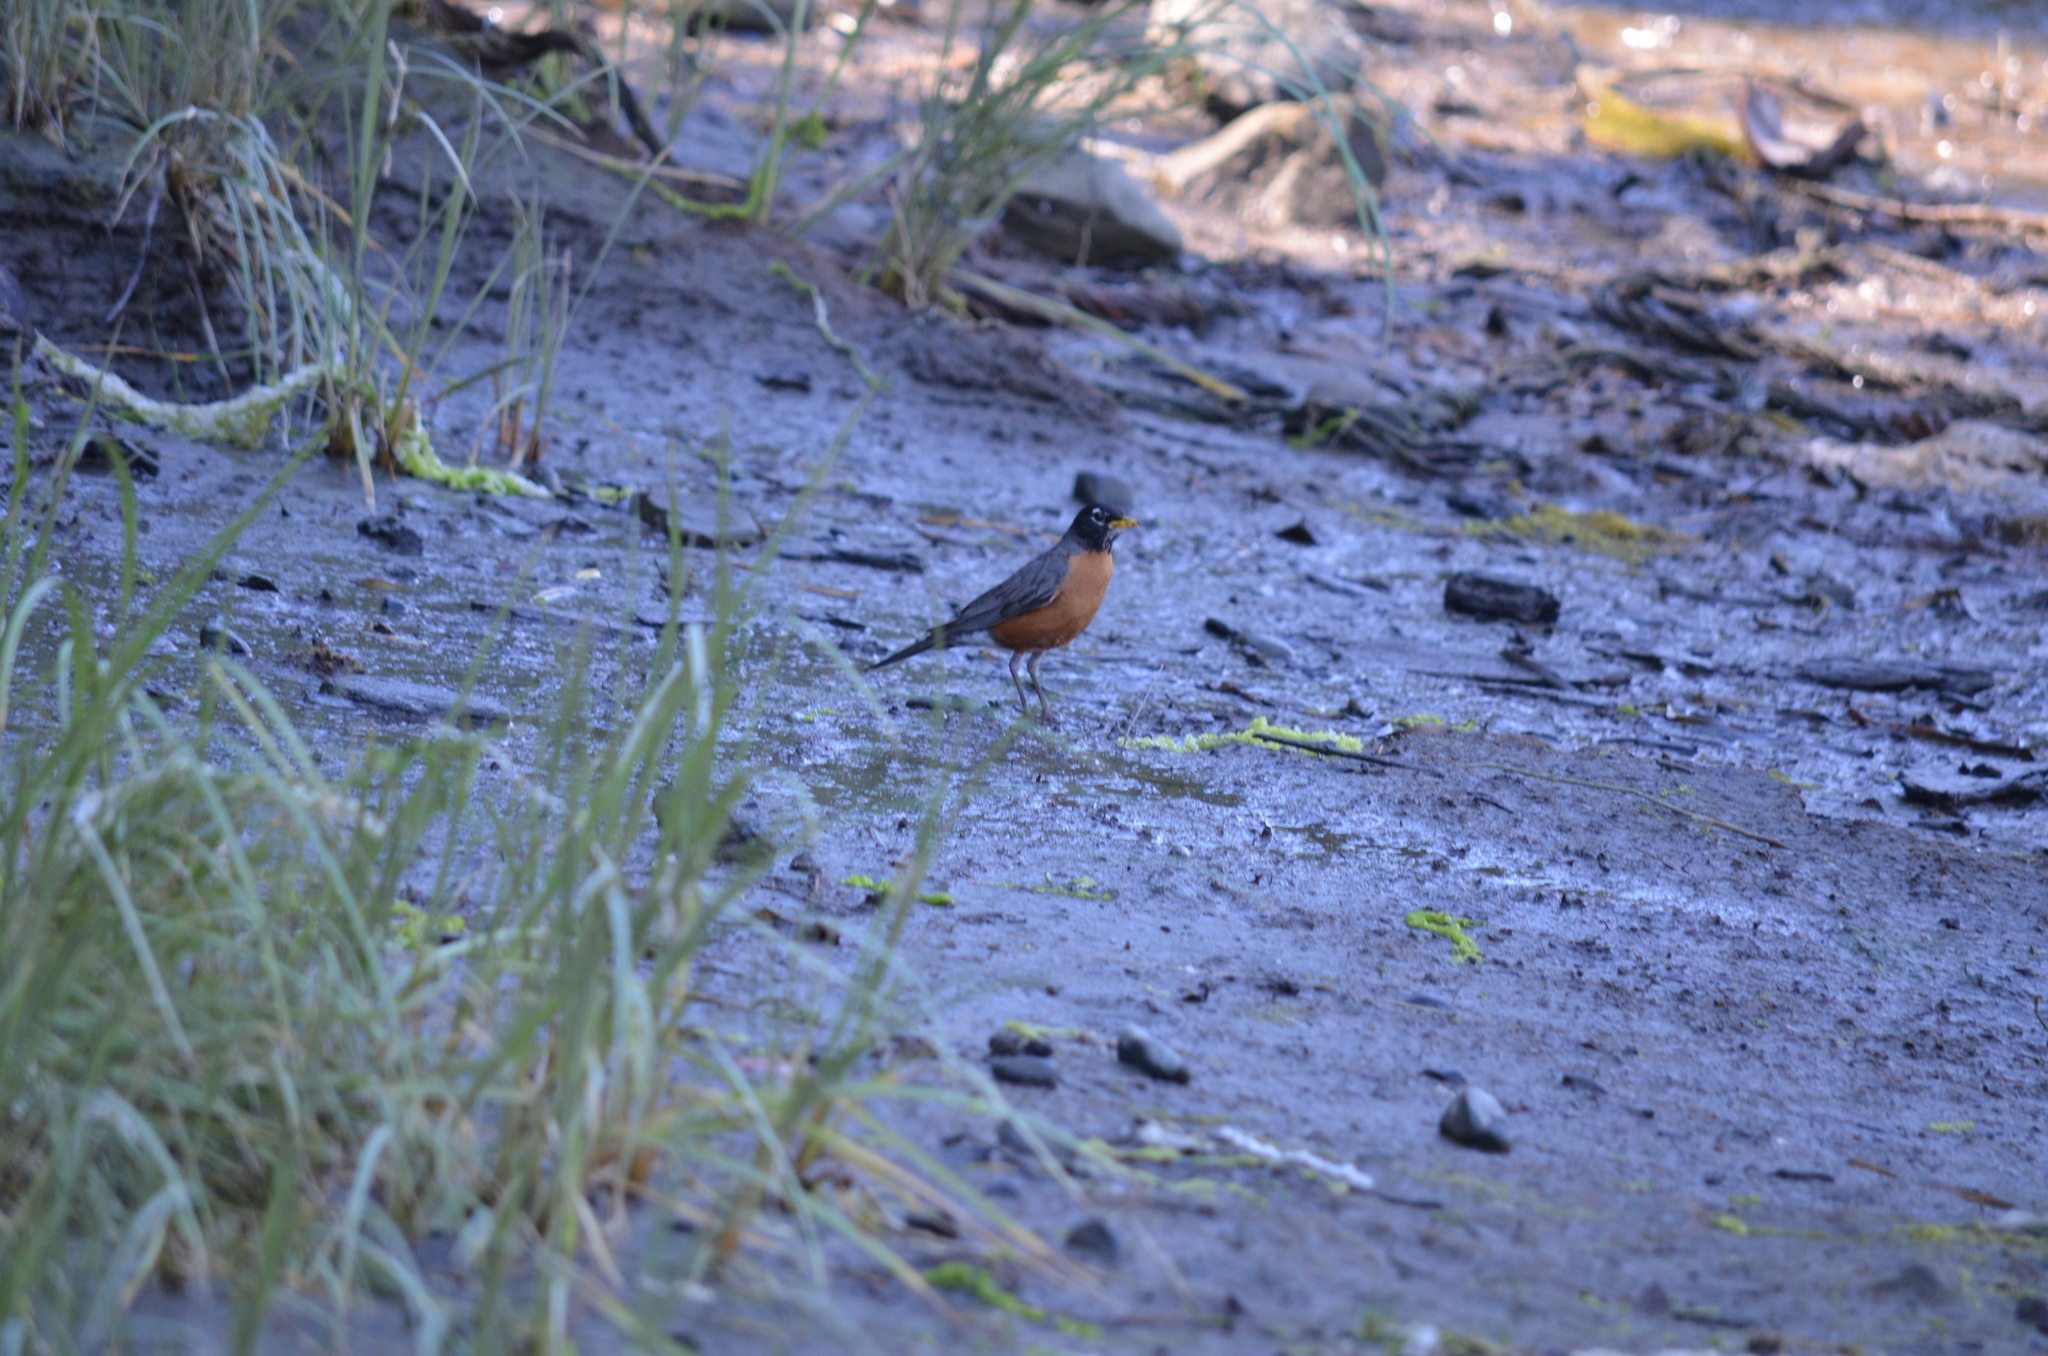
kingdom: Animalia
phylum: Chordata
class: Aves
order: Passeriformes
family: Turdidae
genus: Turdus
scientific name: Turdus migratorius
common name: American robin
